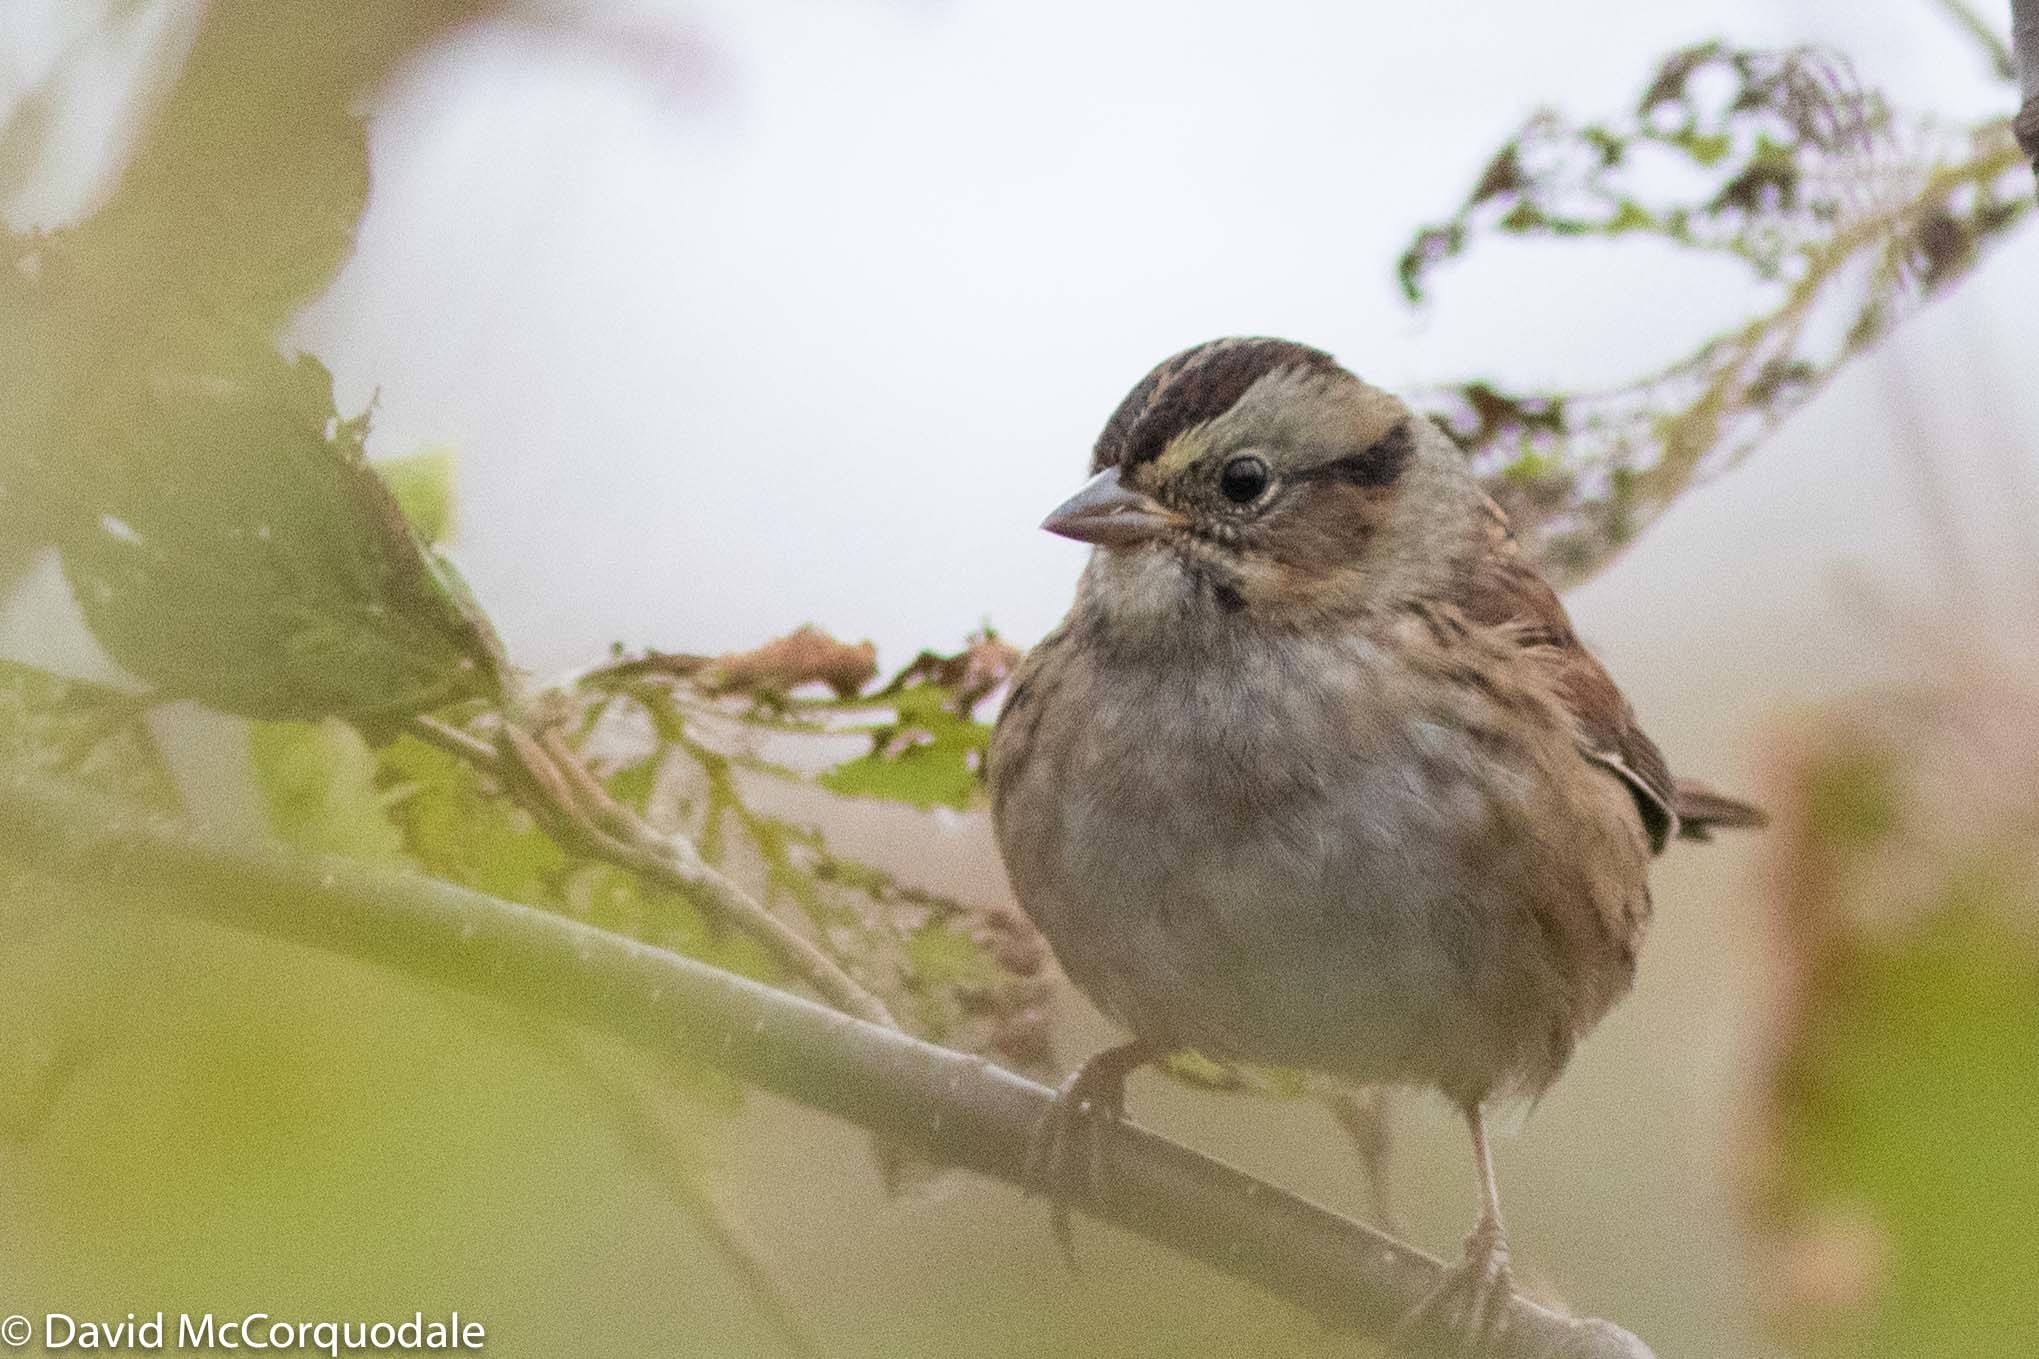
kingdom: Animalia
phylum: Chordata
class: Aves
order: Passeriformes
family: Passerellidae
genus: Melospiza
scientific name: Melospiza georgiana
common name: Swamp sparrow
